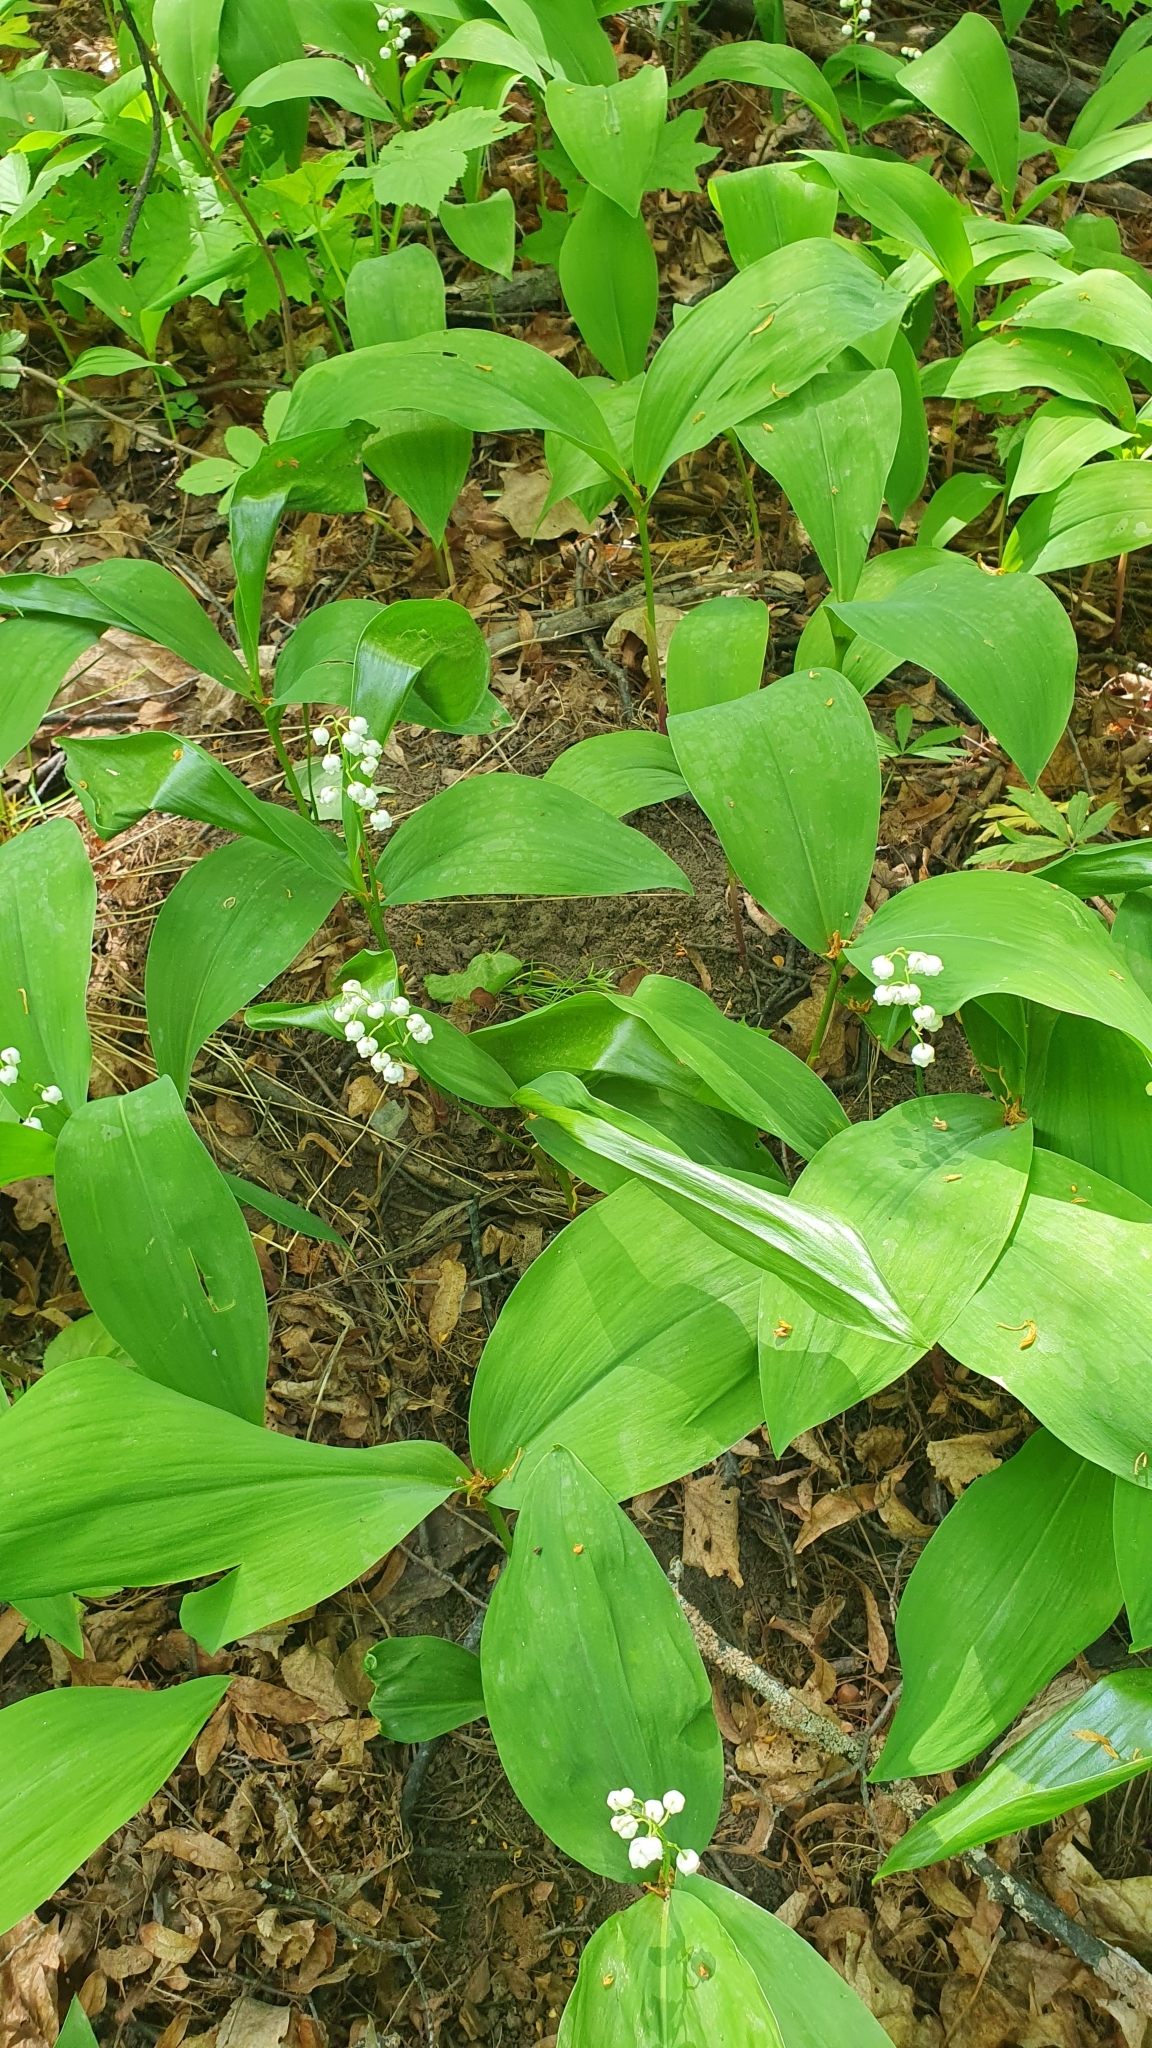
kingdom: Plantae
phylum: Tracheophyta
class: Liliopsida
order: Asparagales
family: Asparagaceae
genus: Convallaria
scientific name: Convallaria majalis
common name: Lily-of-the-valley
